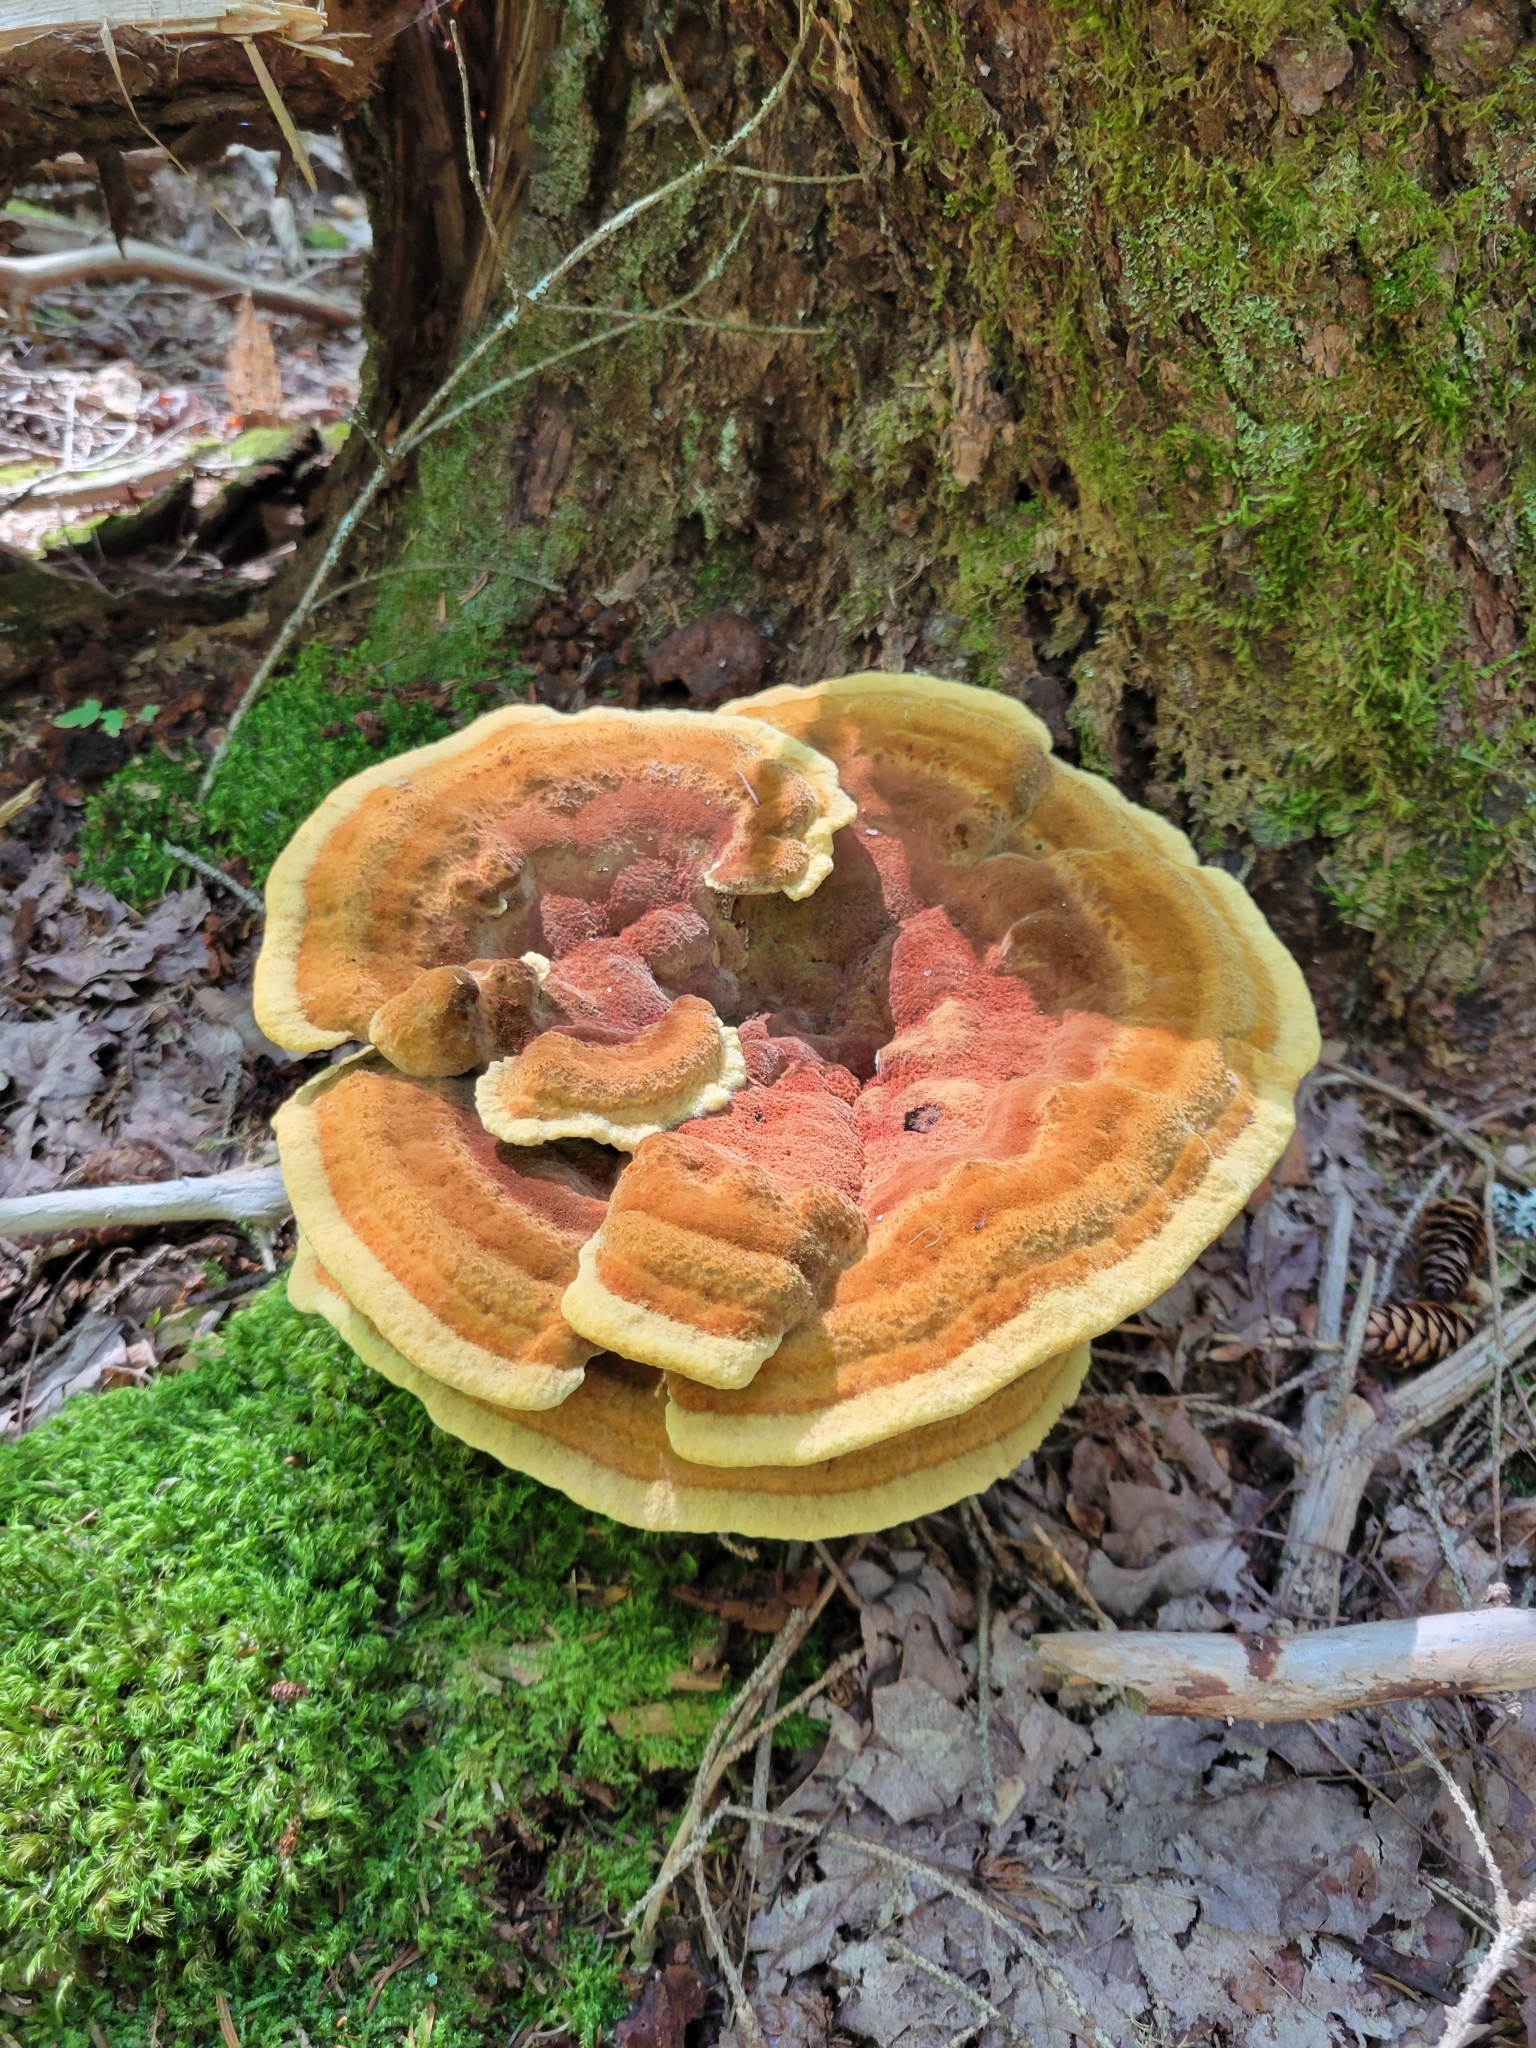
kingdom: Fungi
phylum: Basidiomycota
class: Agaricomycetes
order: Polyporales
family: Laetiporaceae
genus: Phaeolus
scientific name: Phaeolus schweinitzii
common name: Dyer's mazegill
